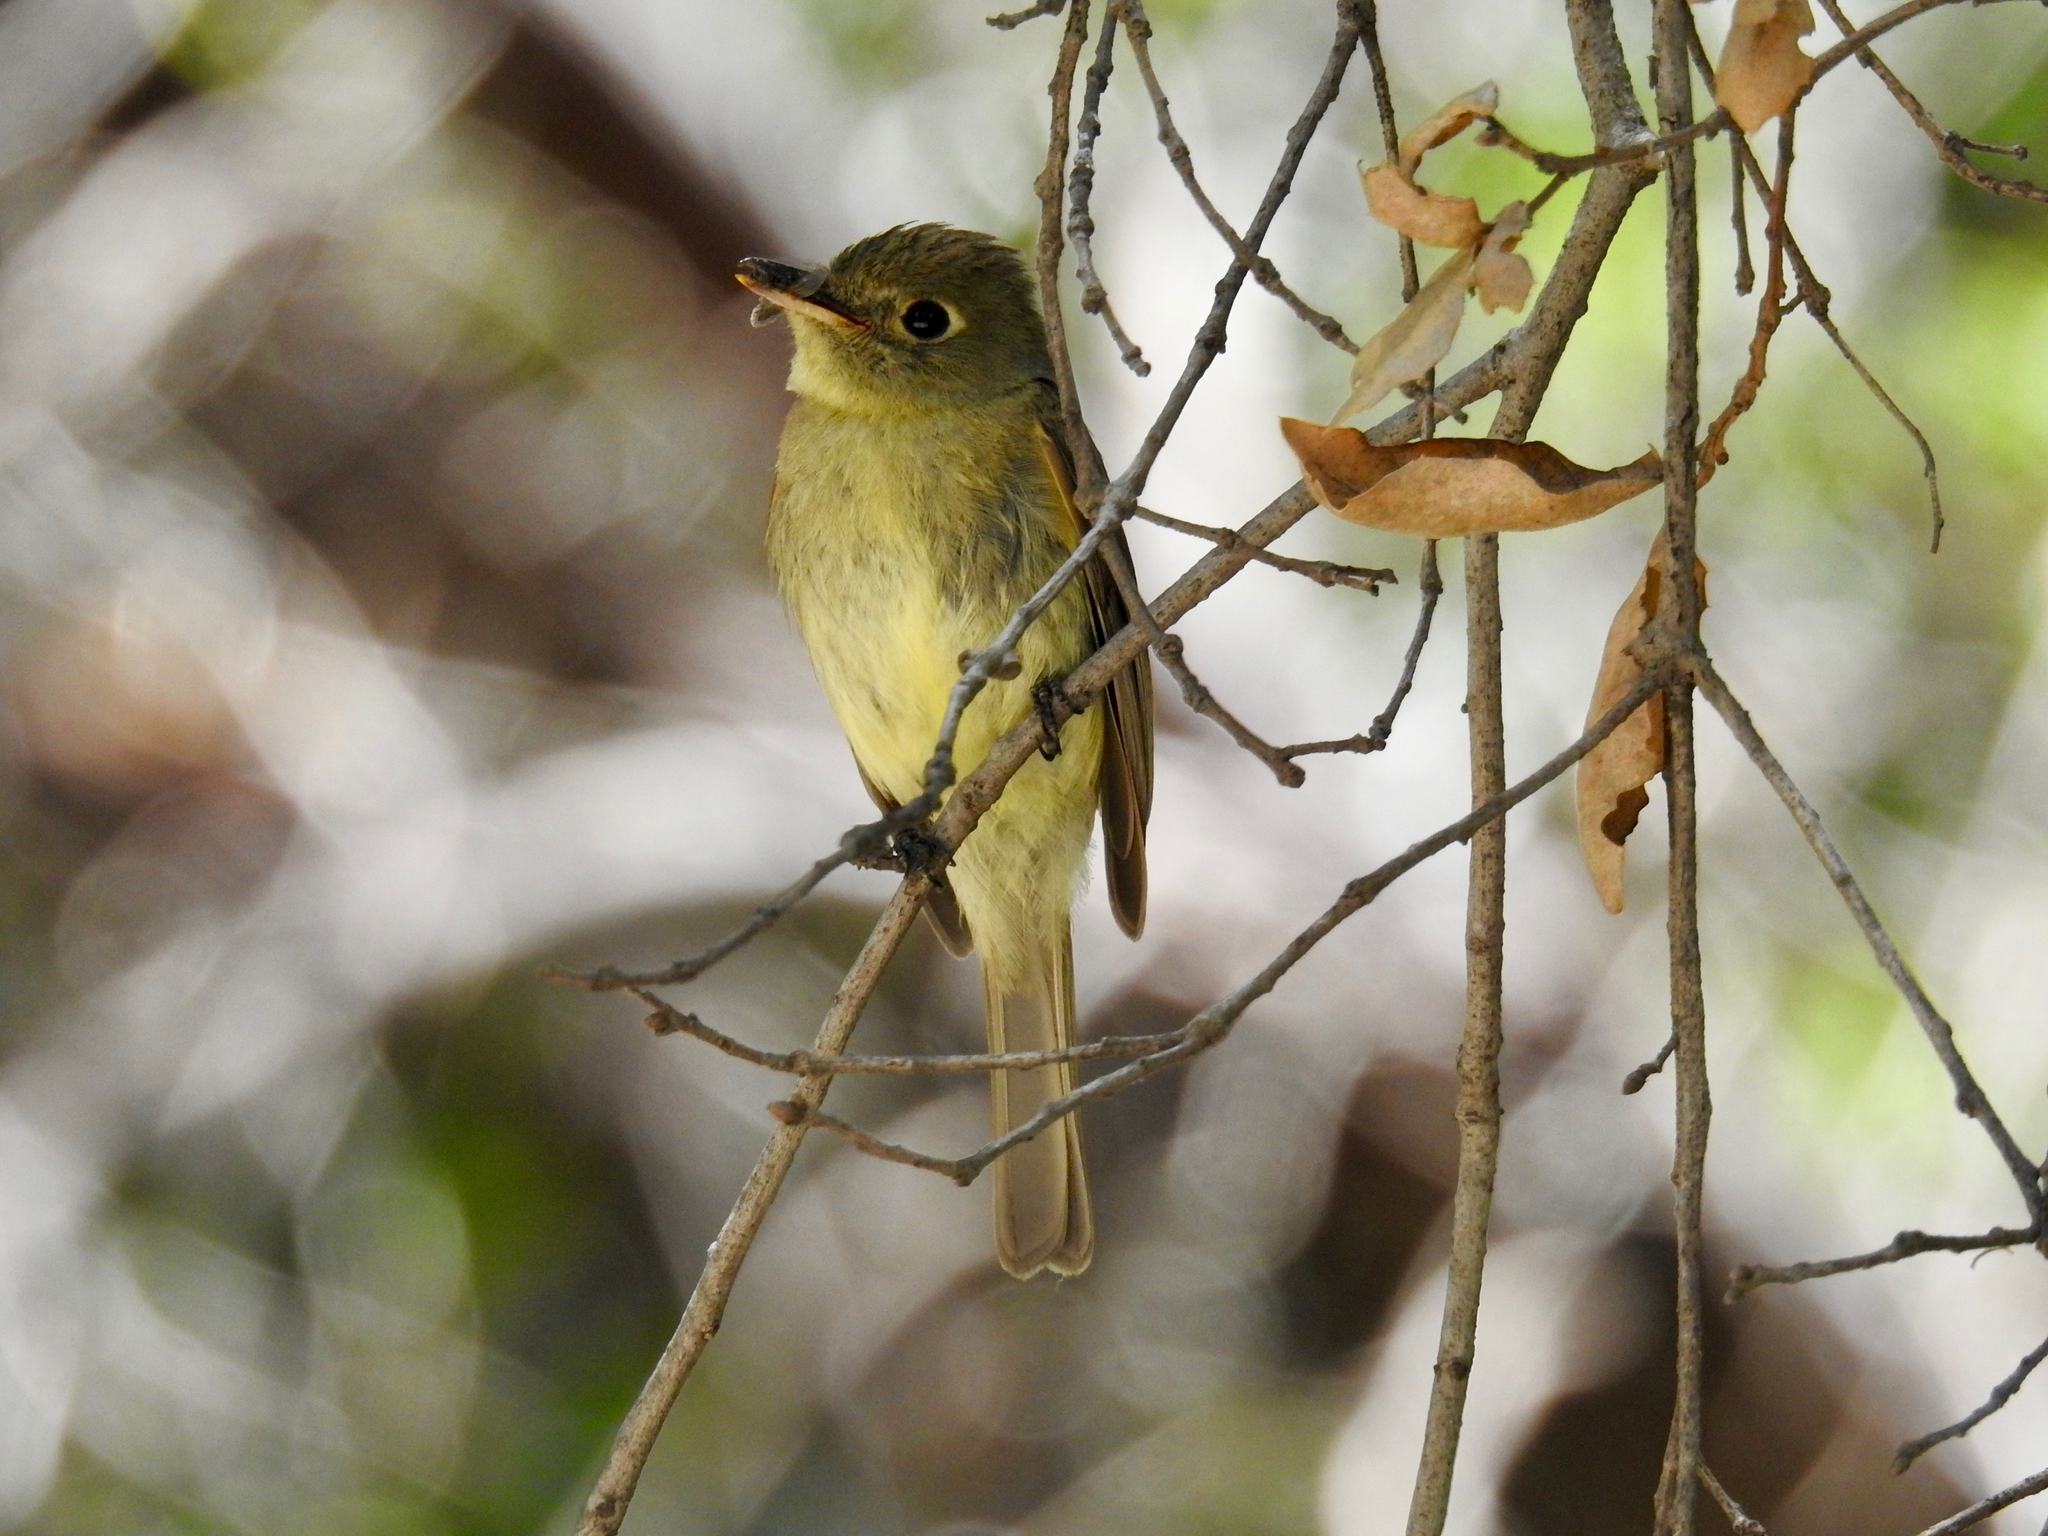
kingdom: Animalia
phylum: Chordata
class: Aves
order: Passeriformes
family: Tyrannidae
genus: Empidonax
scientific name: Empidonax difficilis
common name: Pacific-slope flycatcher
